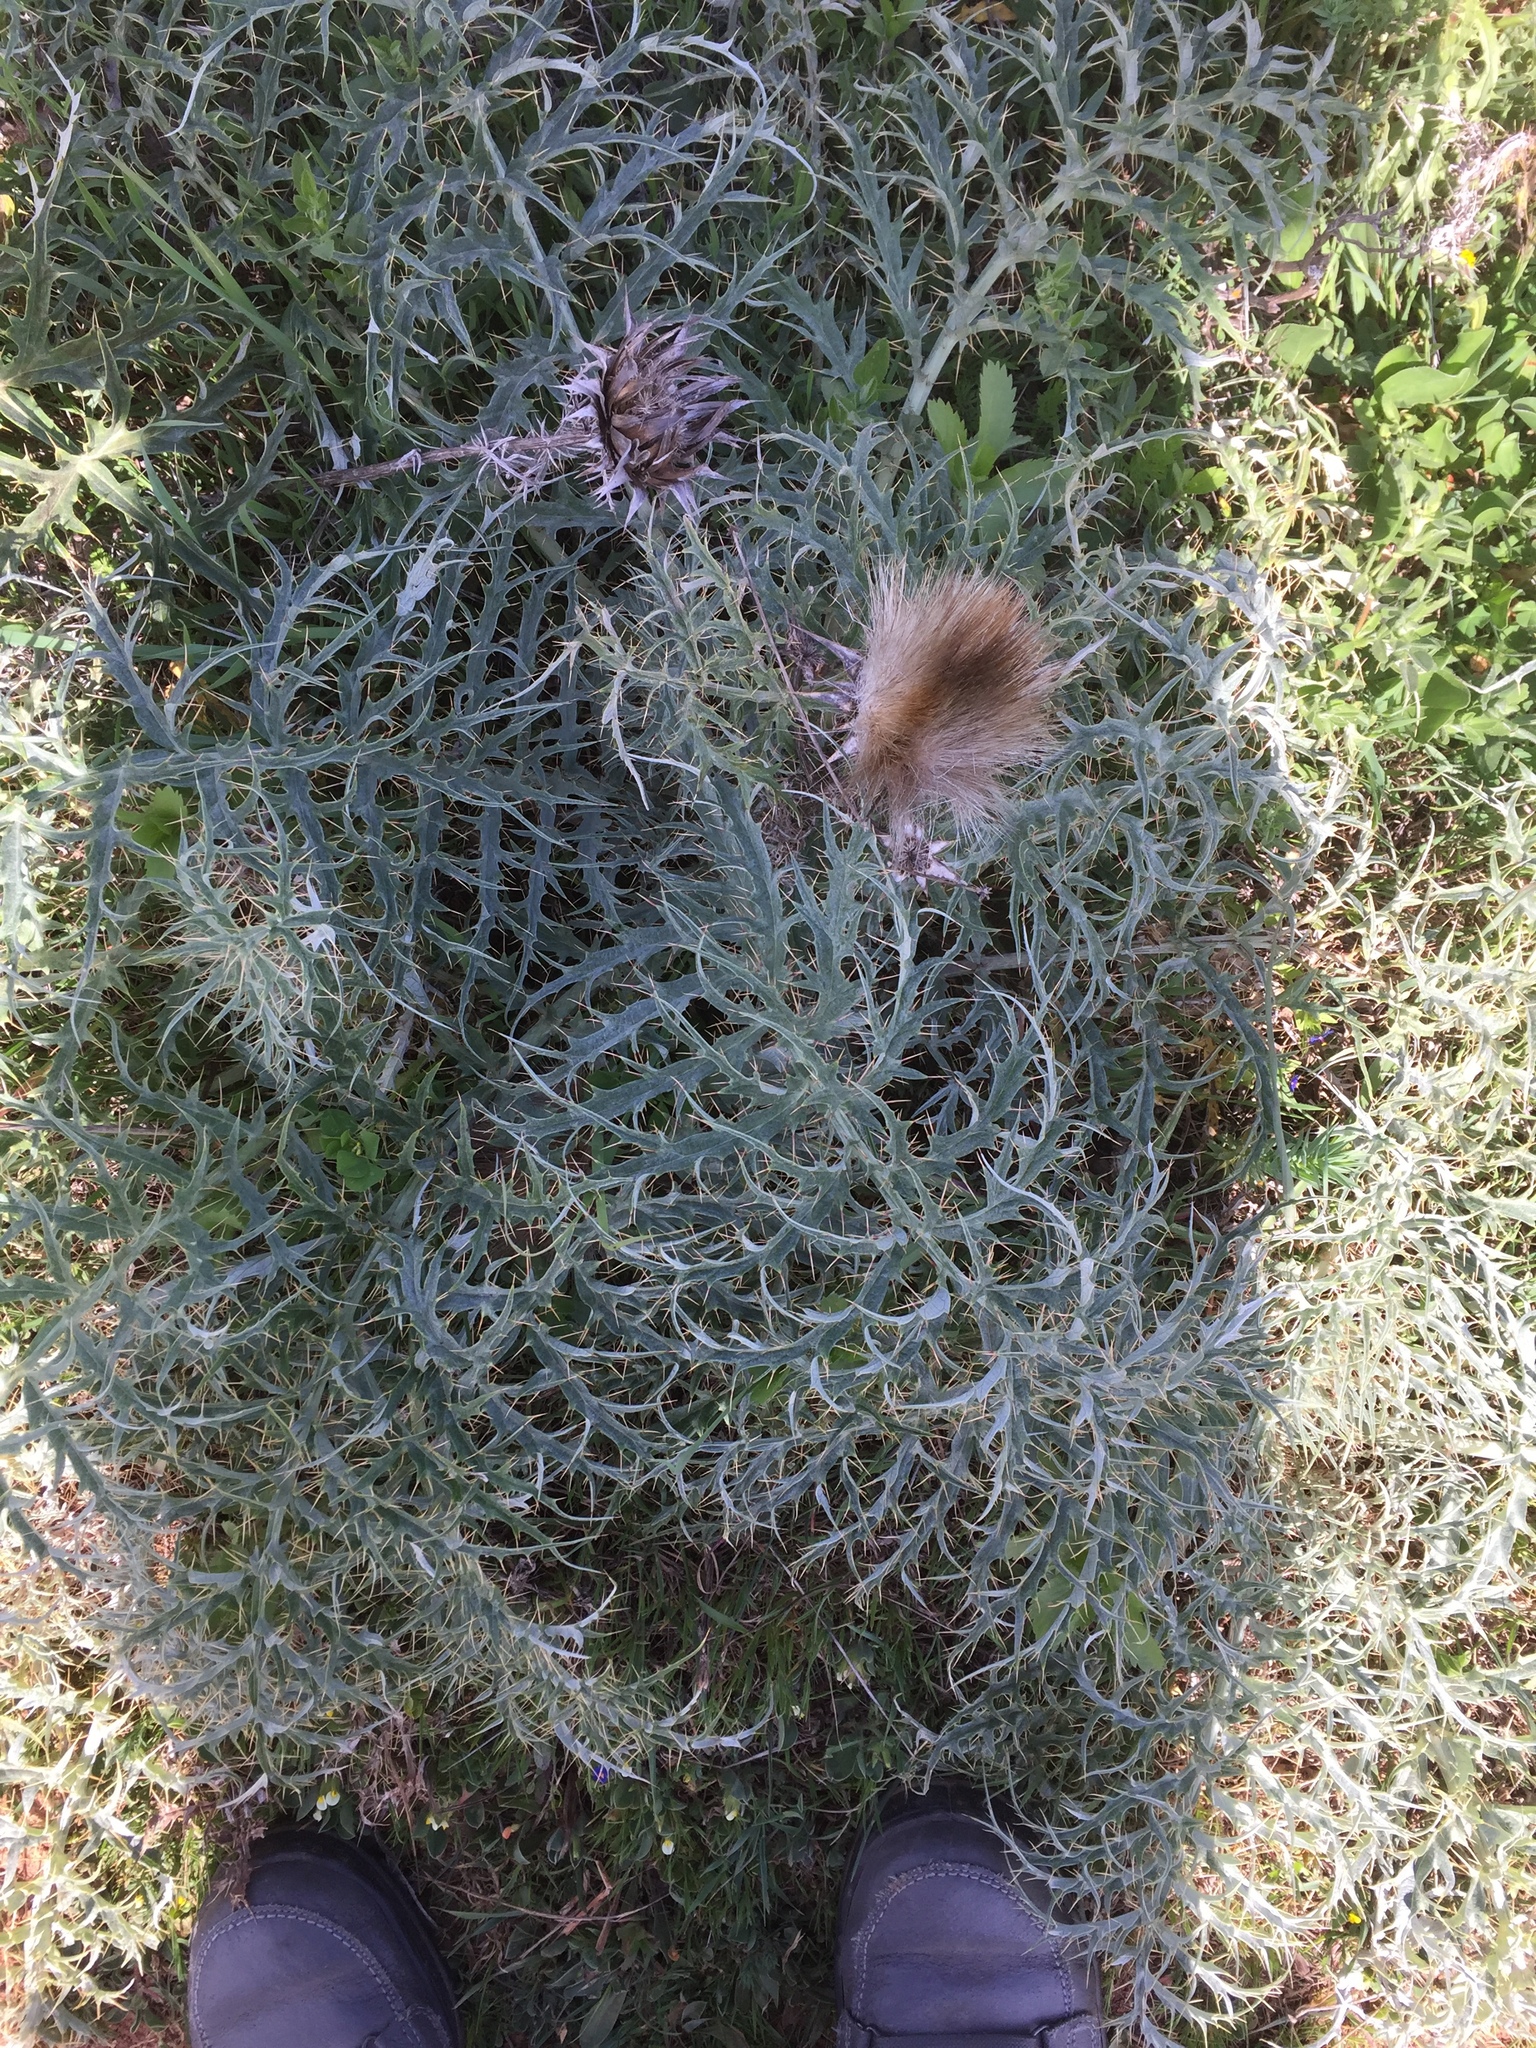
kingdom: Plantae
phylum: Tracheophyta
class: Magnoliopsida
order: Asterales
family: Asteraceae
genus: Cynara
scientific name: Cynara cardunculus
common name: Globe artichoke
